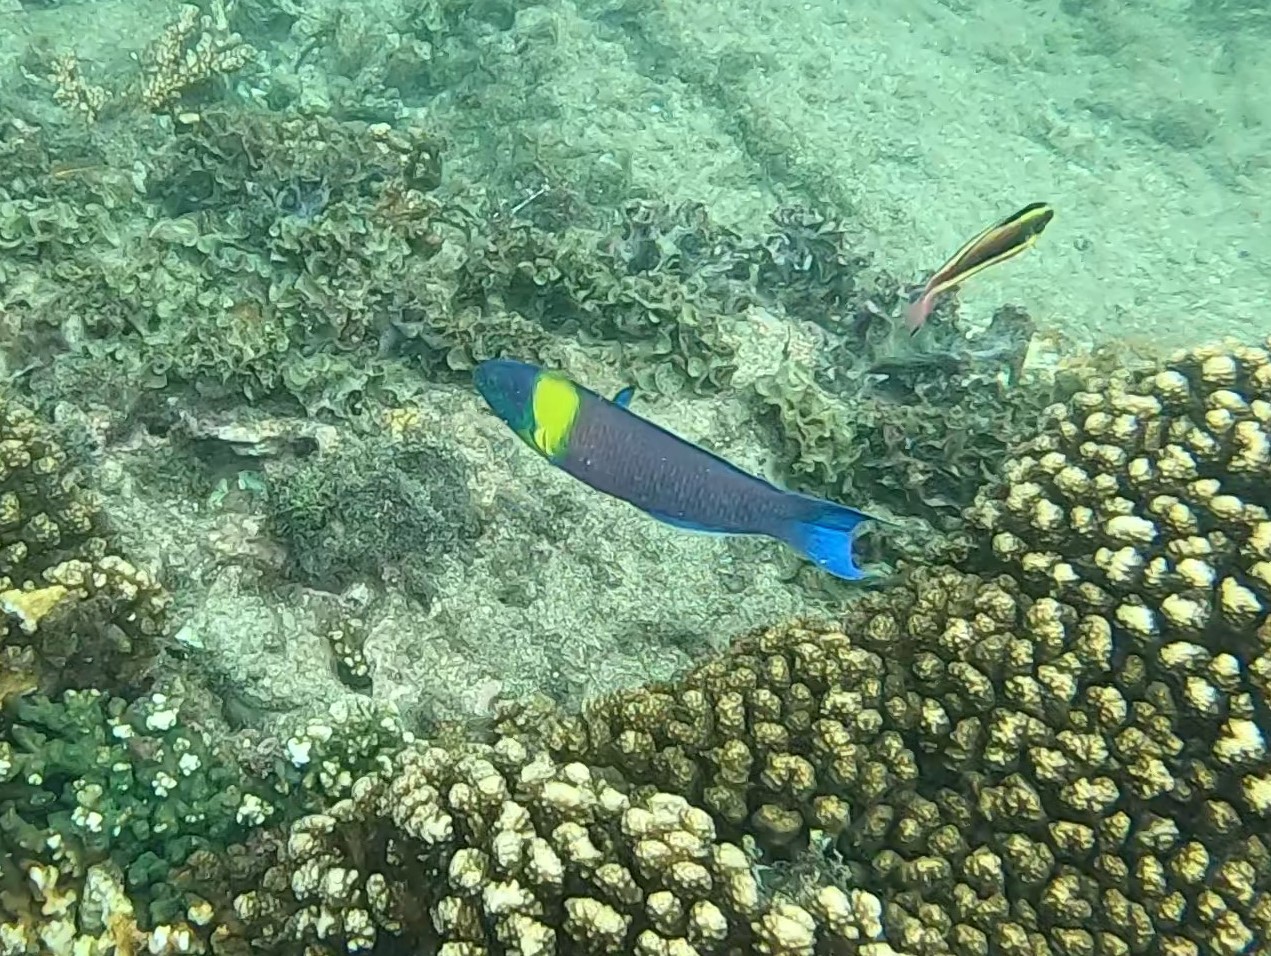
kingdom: Animalia
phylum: Chordata
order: Perciformes
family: Labridae
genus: Thalassoma
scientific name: Thalassoma lucasanum
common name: Cortez rainbow wrasse
